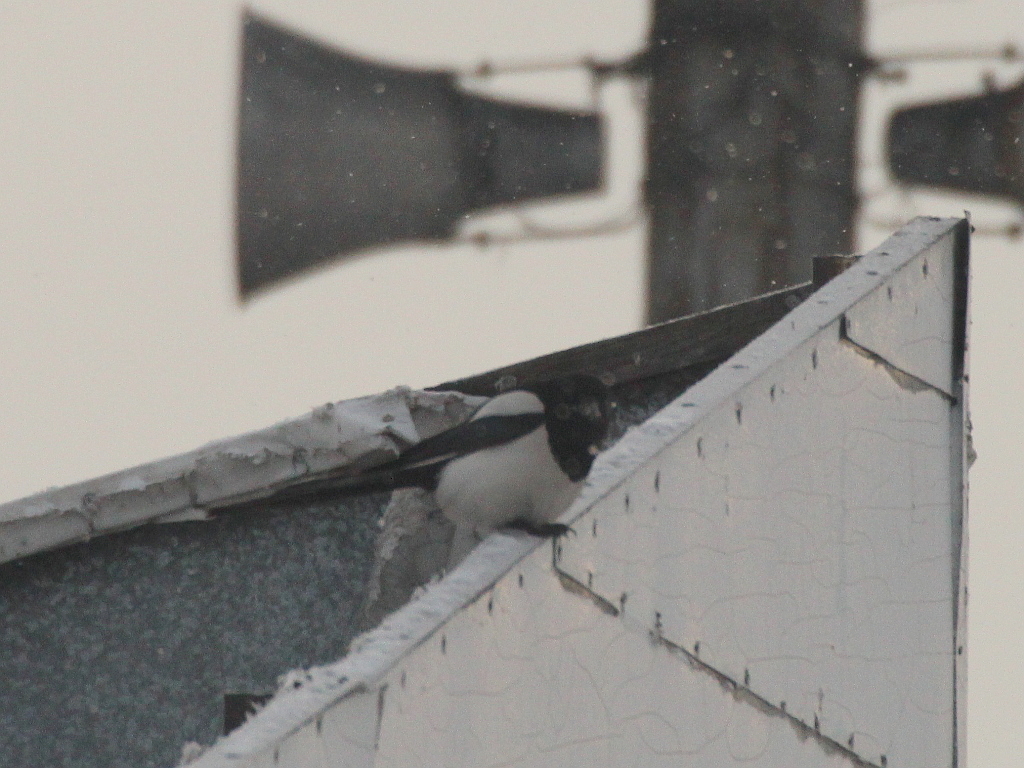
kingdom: Animalia
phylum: Chordata
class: Aves
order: Passeriformes
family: Corvidae
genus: Pica
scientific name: Pica pica
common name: Eurasian magpie
